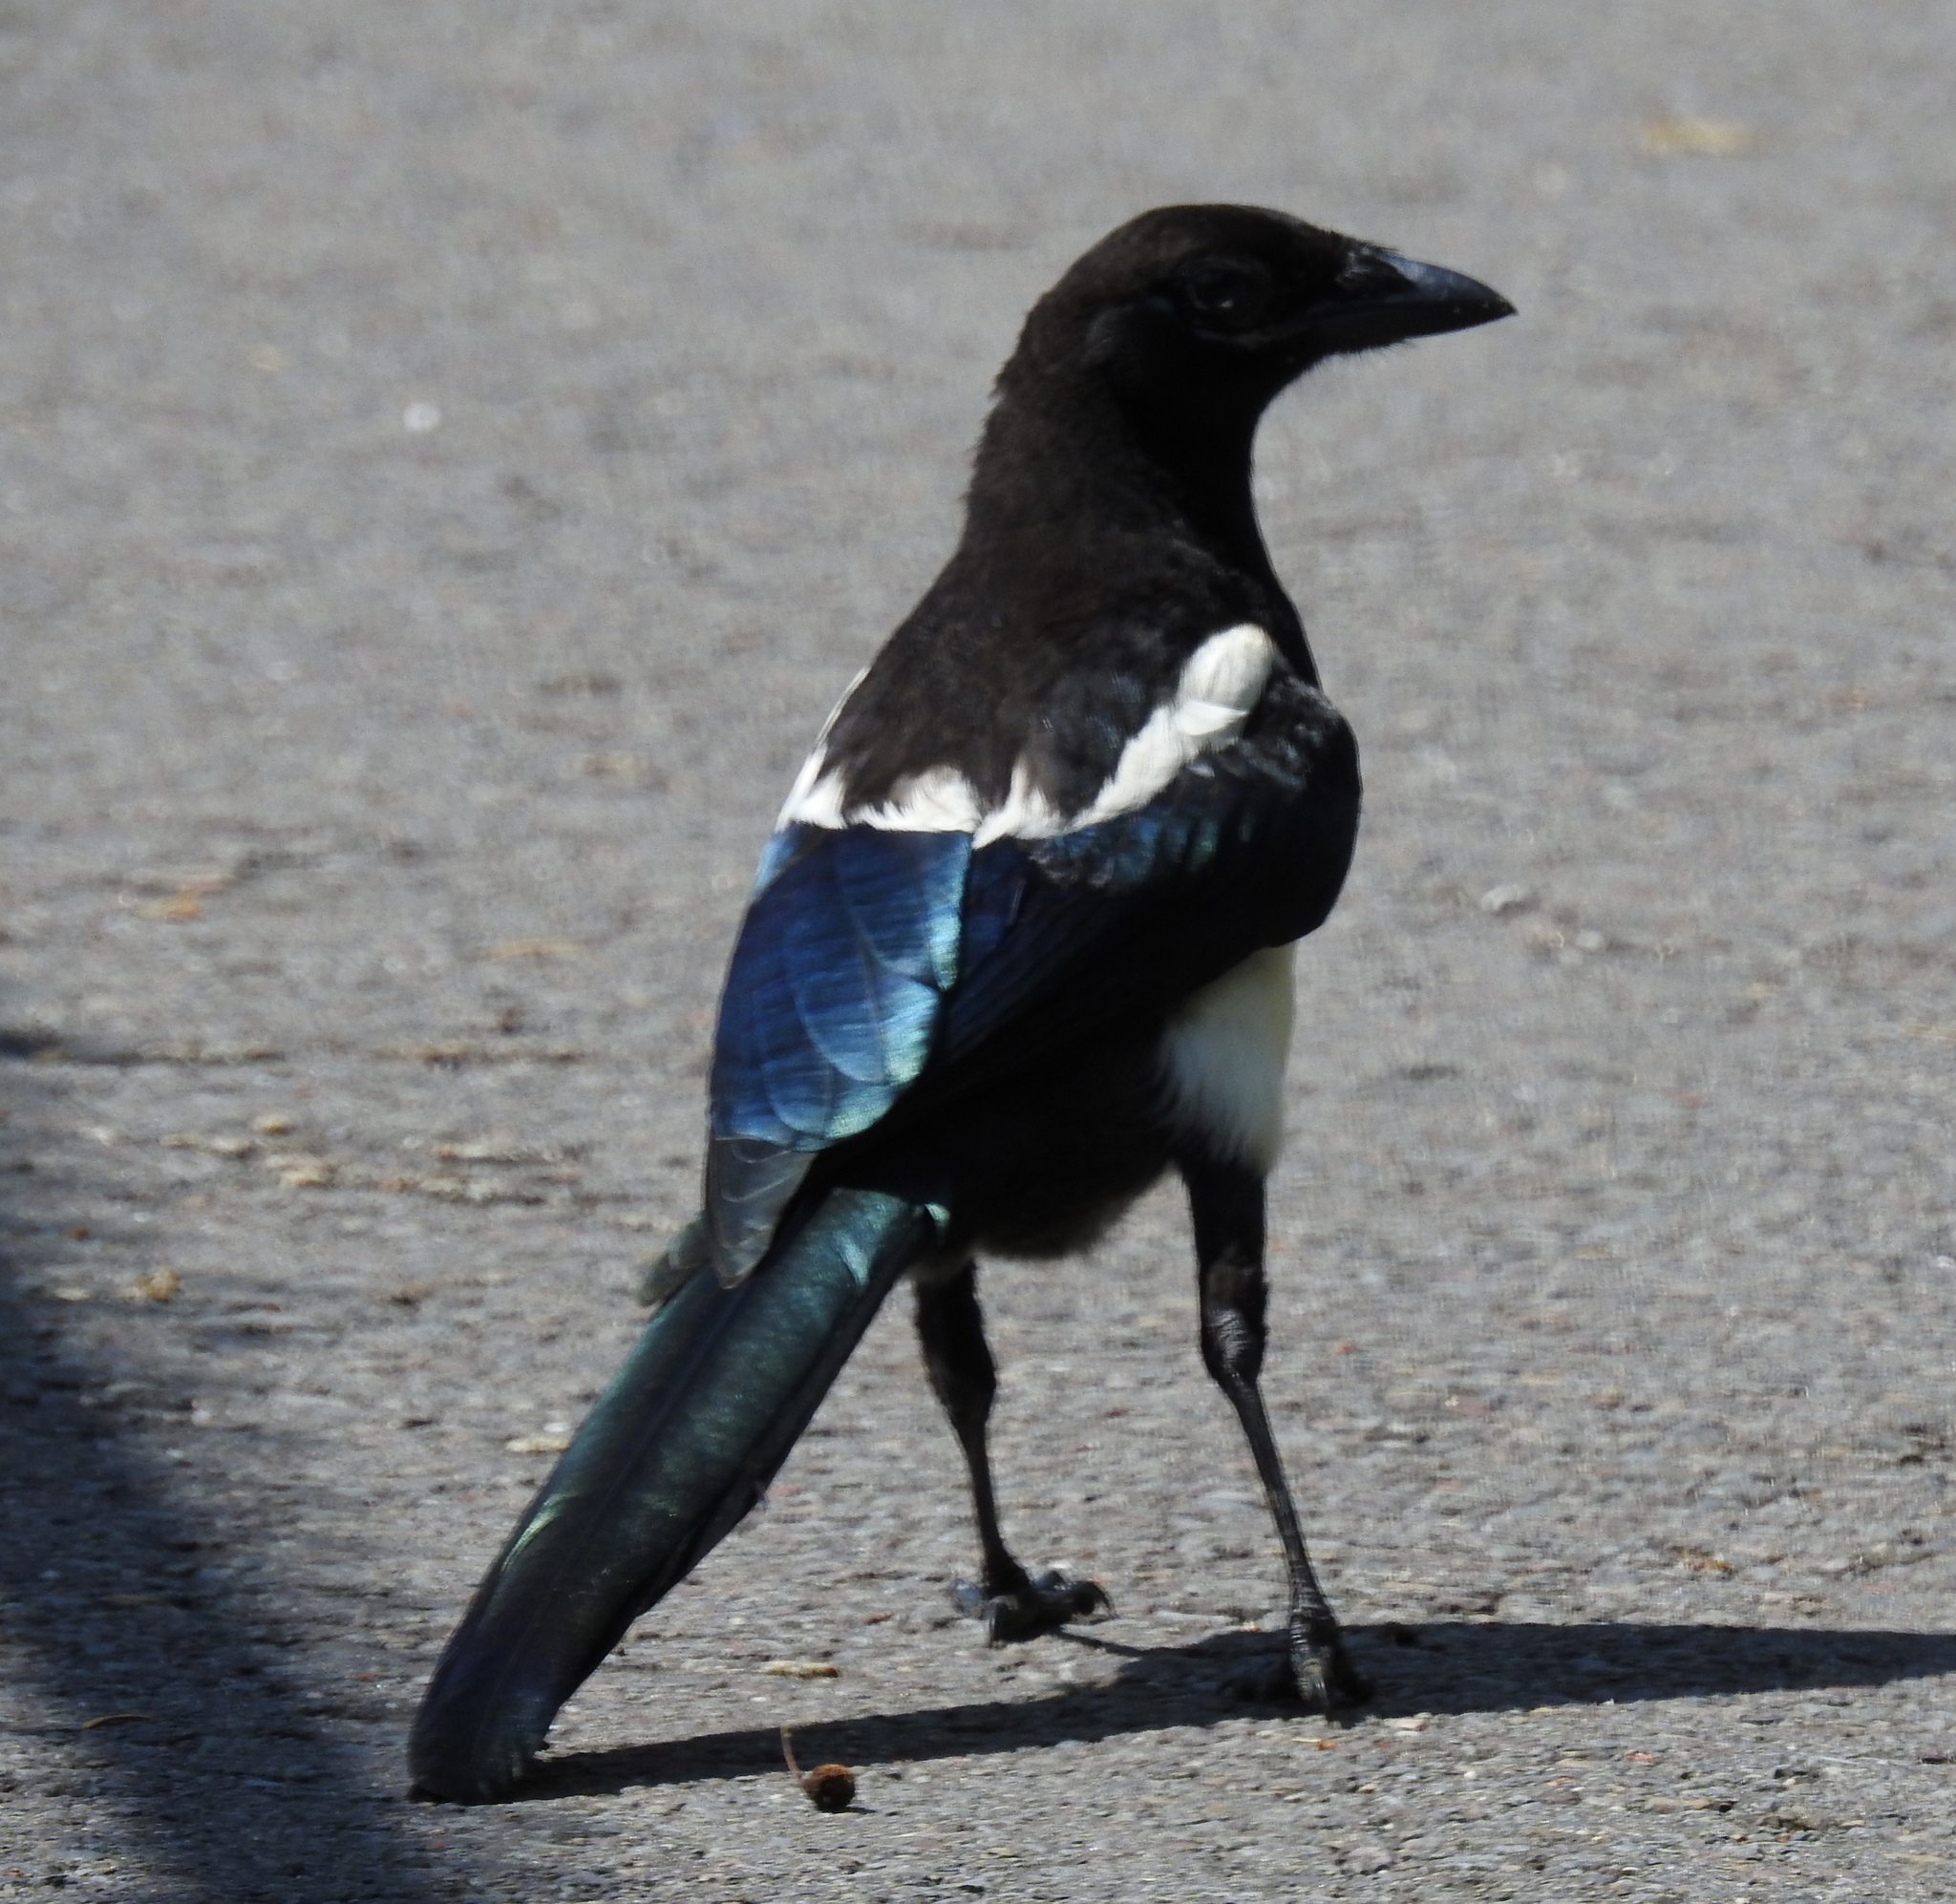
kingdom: Animalia
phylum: Chordata
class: Aves
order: Passeriformes
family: Corvidae
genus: Pica
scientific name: Pica pica
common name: Eurasian magpie
